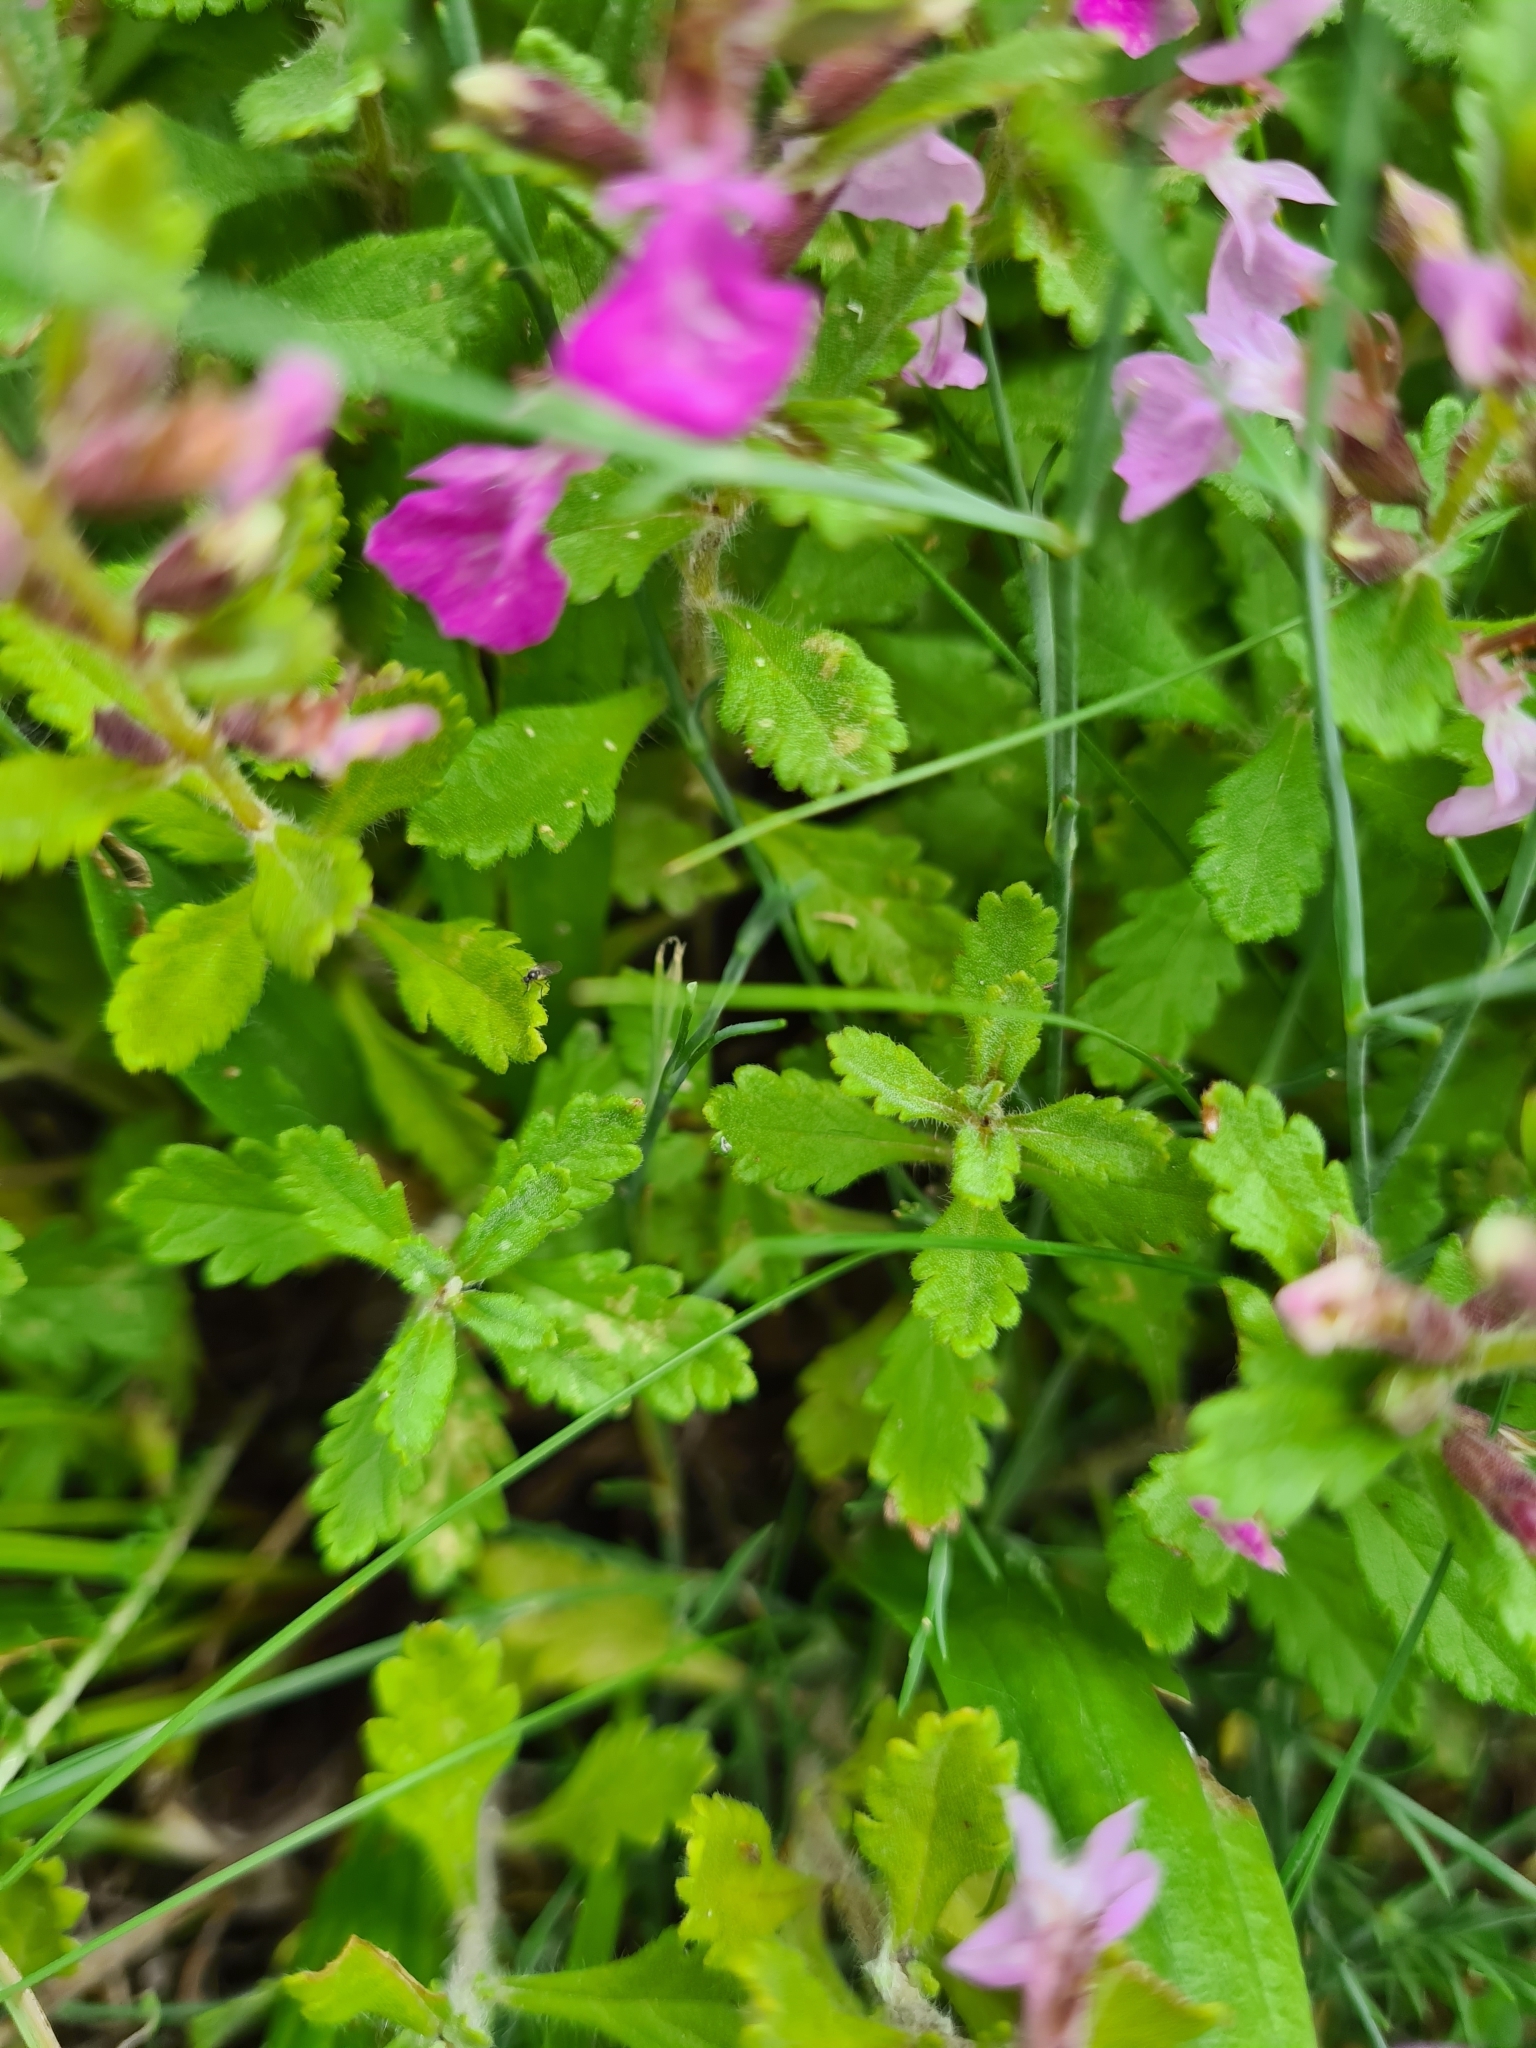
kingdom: Plantae
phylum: Tracheophyta
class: Magnoliopsida
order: Lamiales
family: Lamiaceae
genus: Teucrium
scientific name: Teucrium chamaedrys
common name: Wall germander
